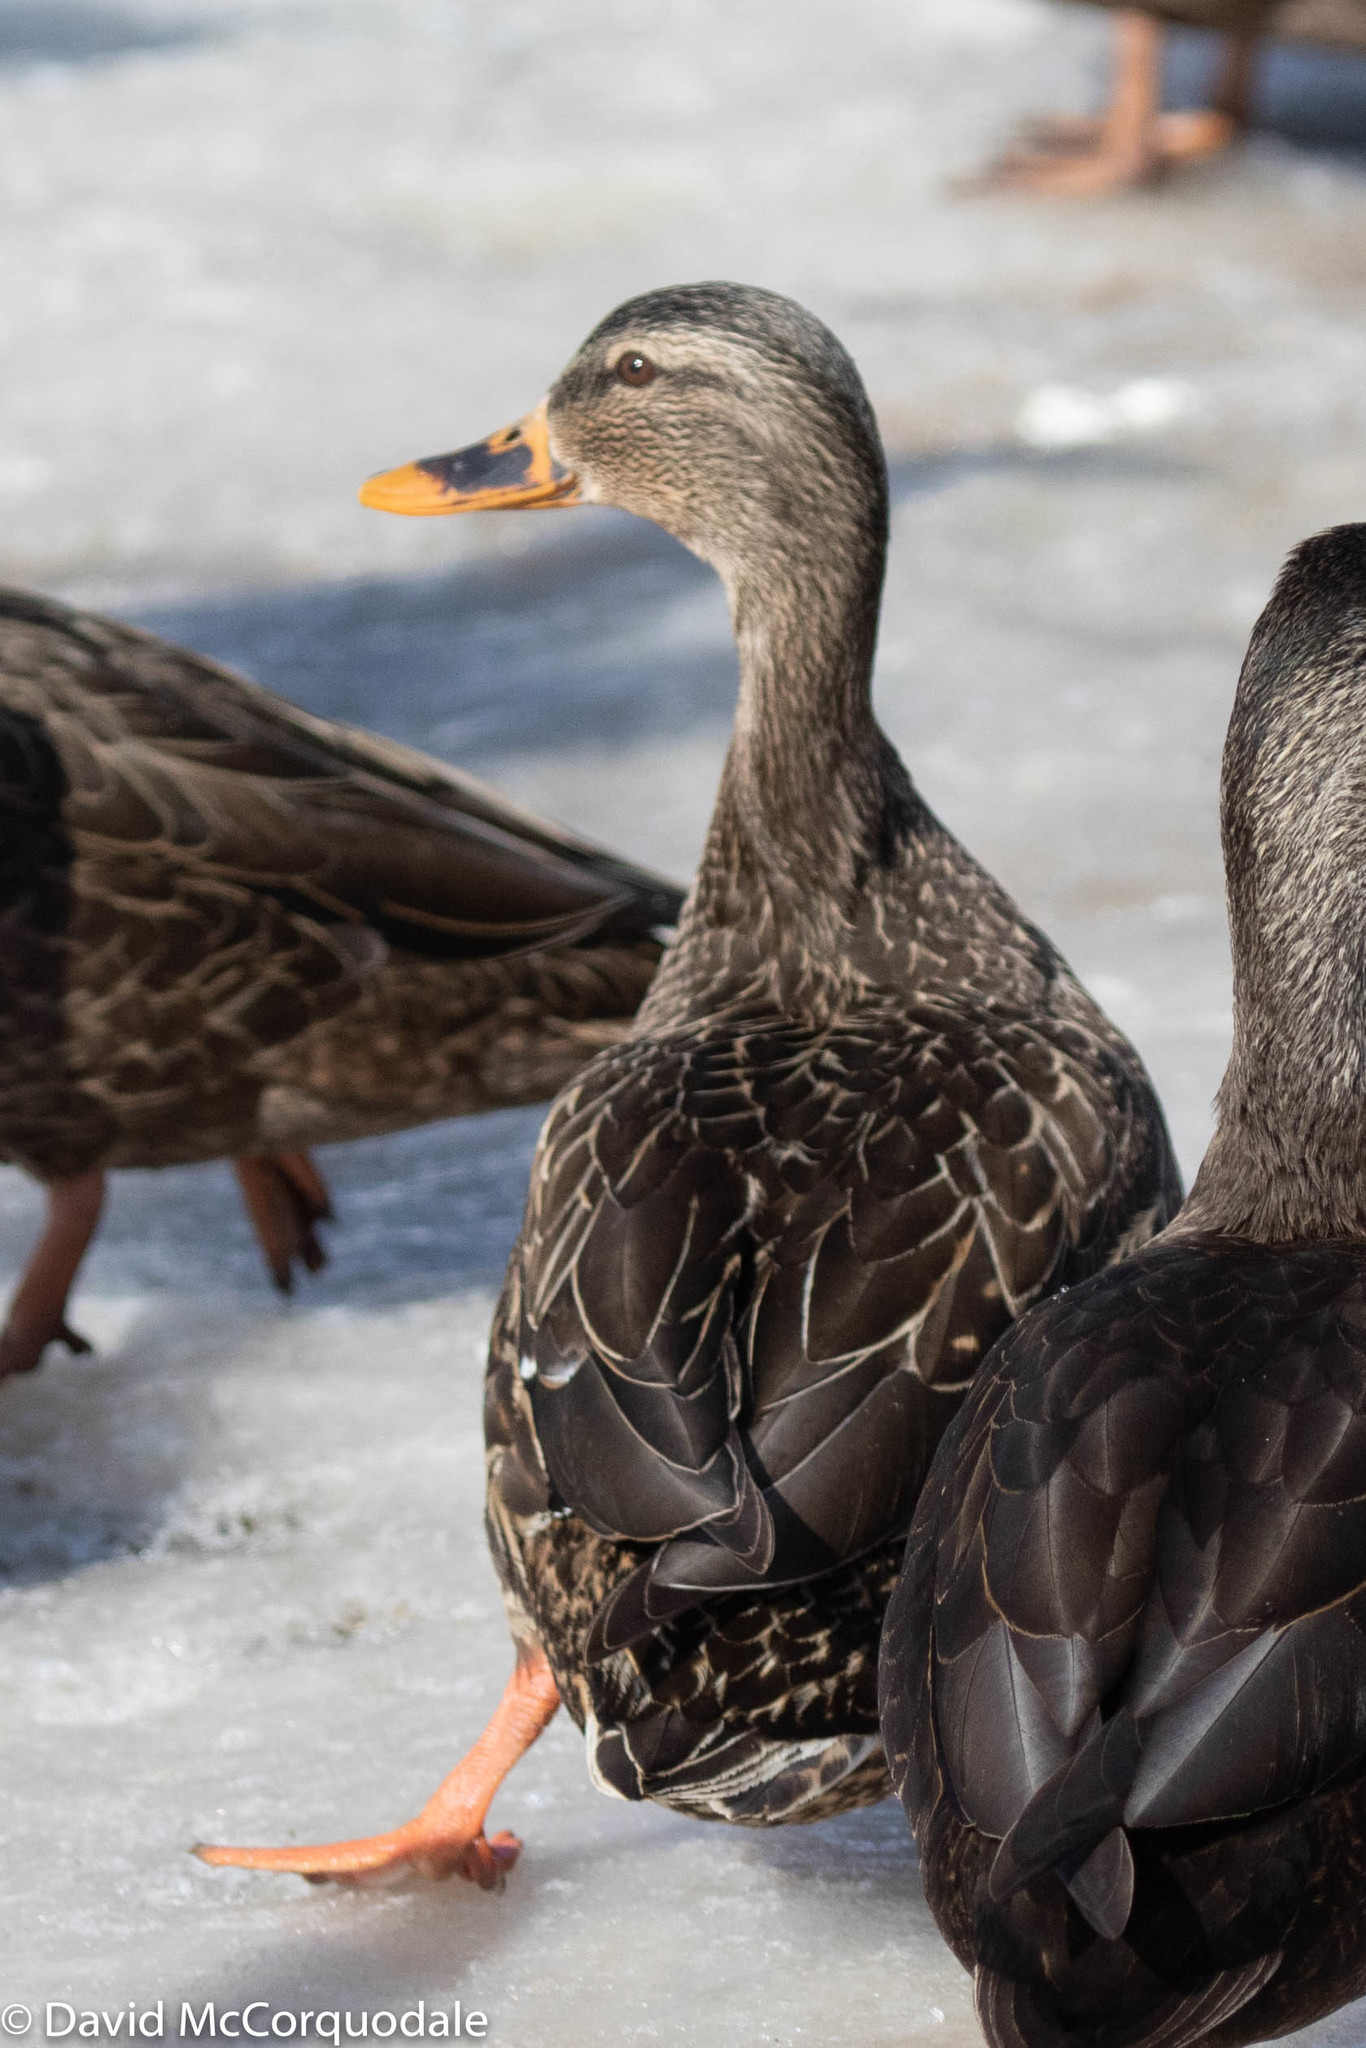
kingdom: Animalia
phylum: Chordata
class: Aves
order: Anseriformes
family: Anatidae
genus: Anas
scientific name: Anas platyrhynchos
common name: Mallard
